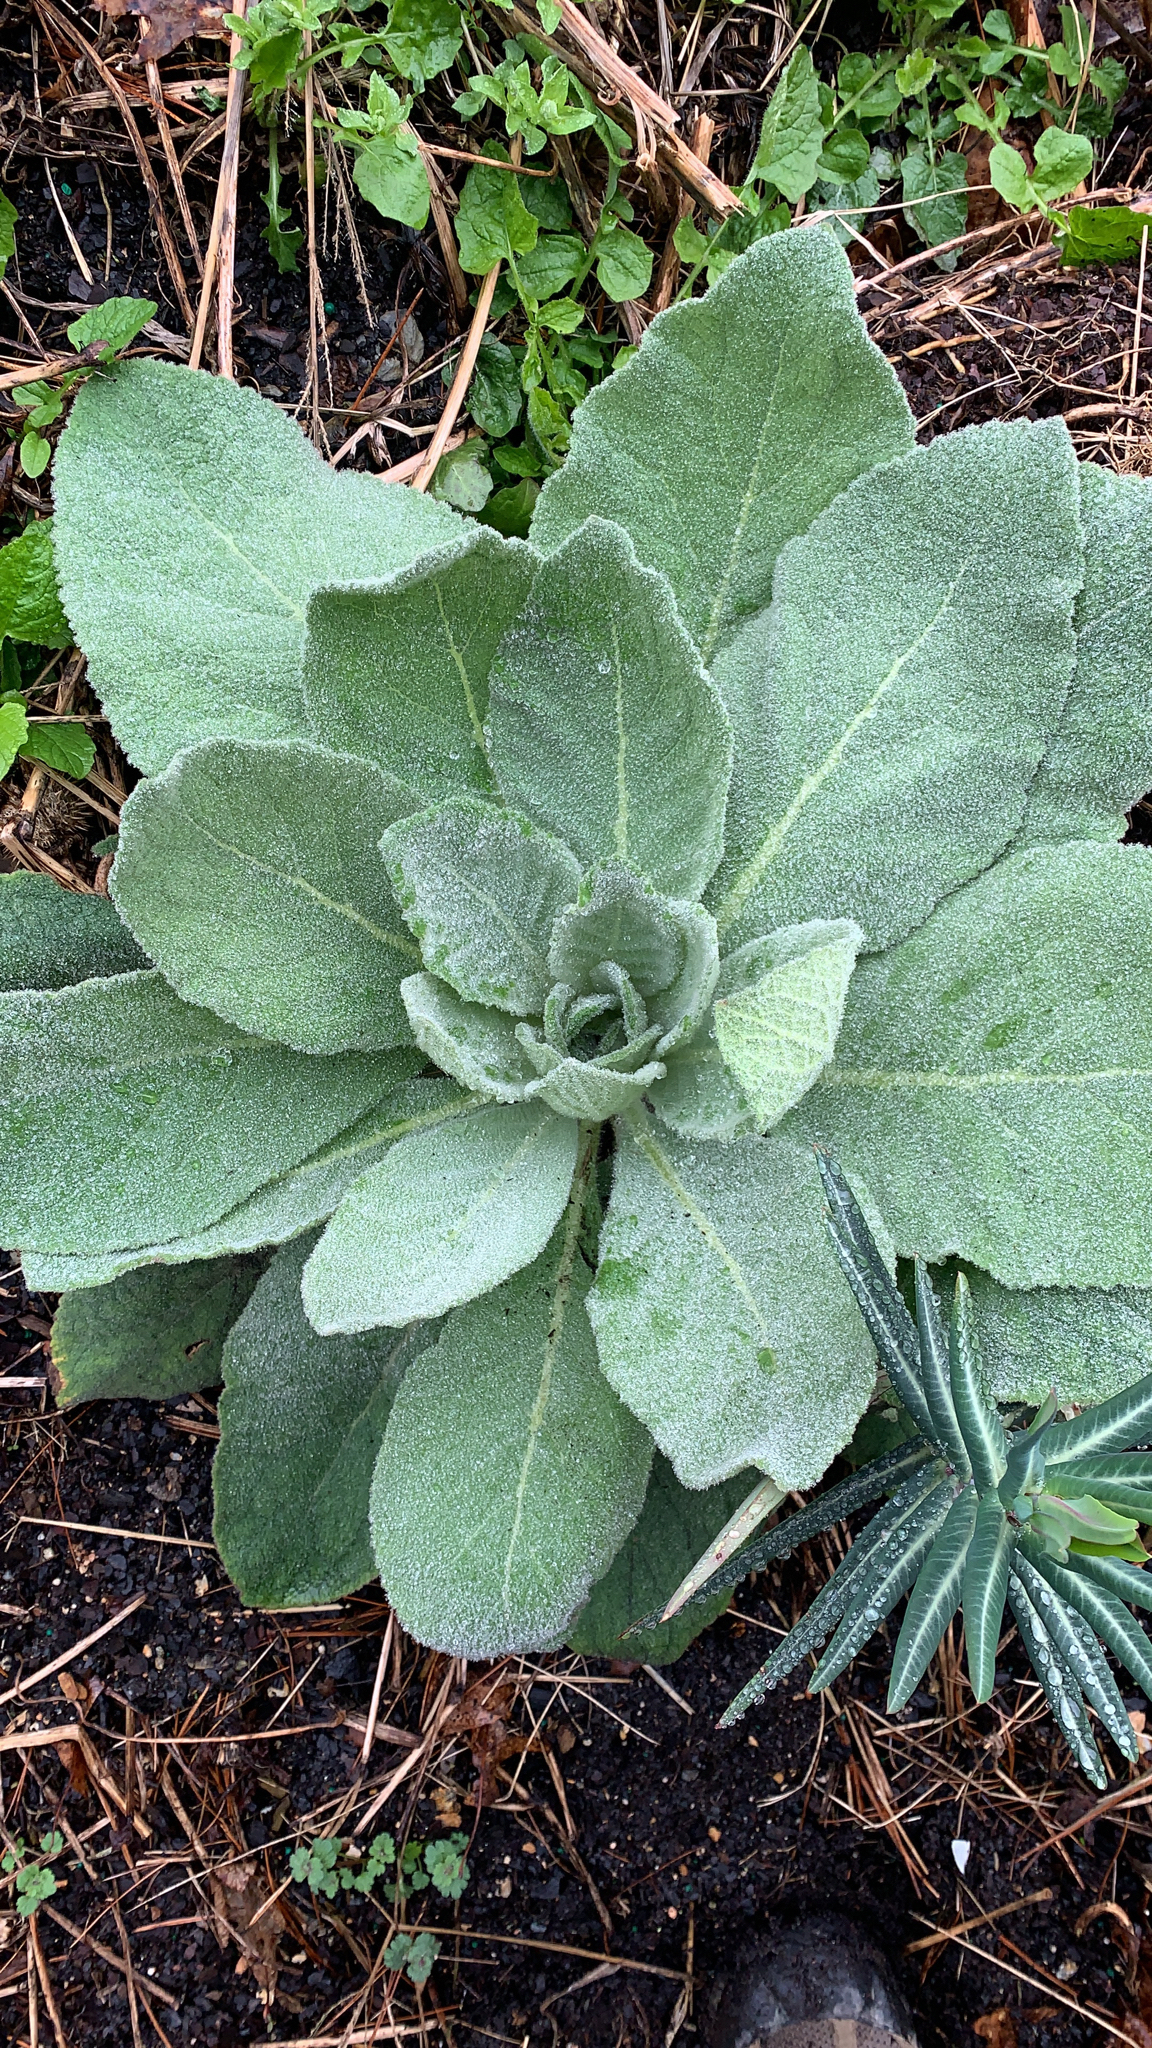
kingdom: Plantae
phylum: Tracheophyta
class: Magnoliopsida
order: Lamiales
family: Scrophulariaceae
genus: Verbascum
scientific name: Verbascum thapsus
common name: Common mullein
